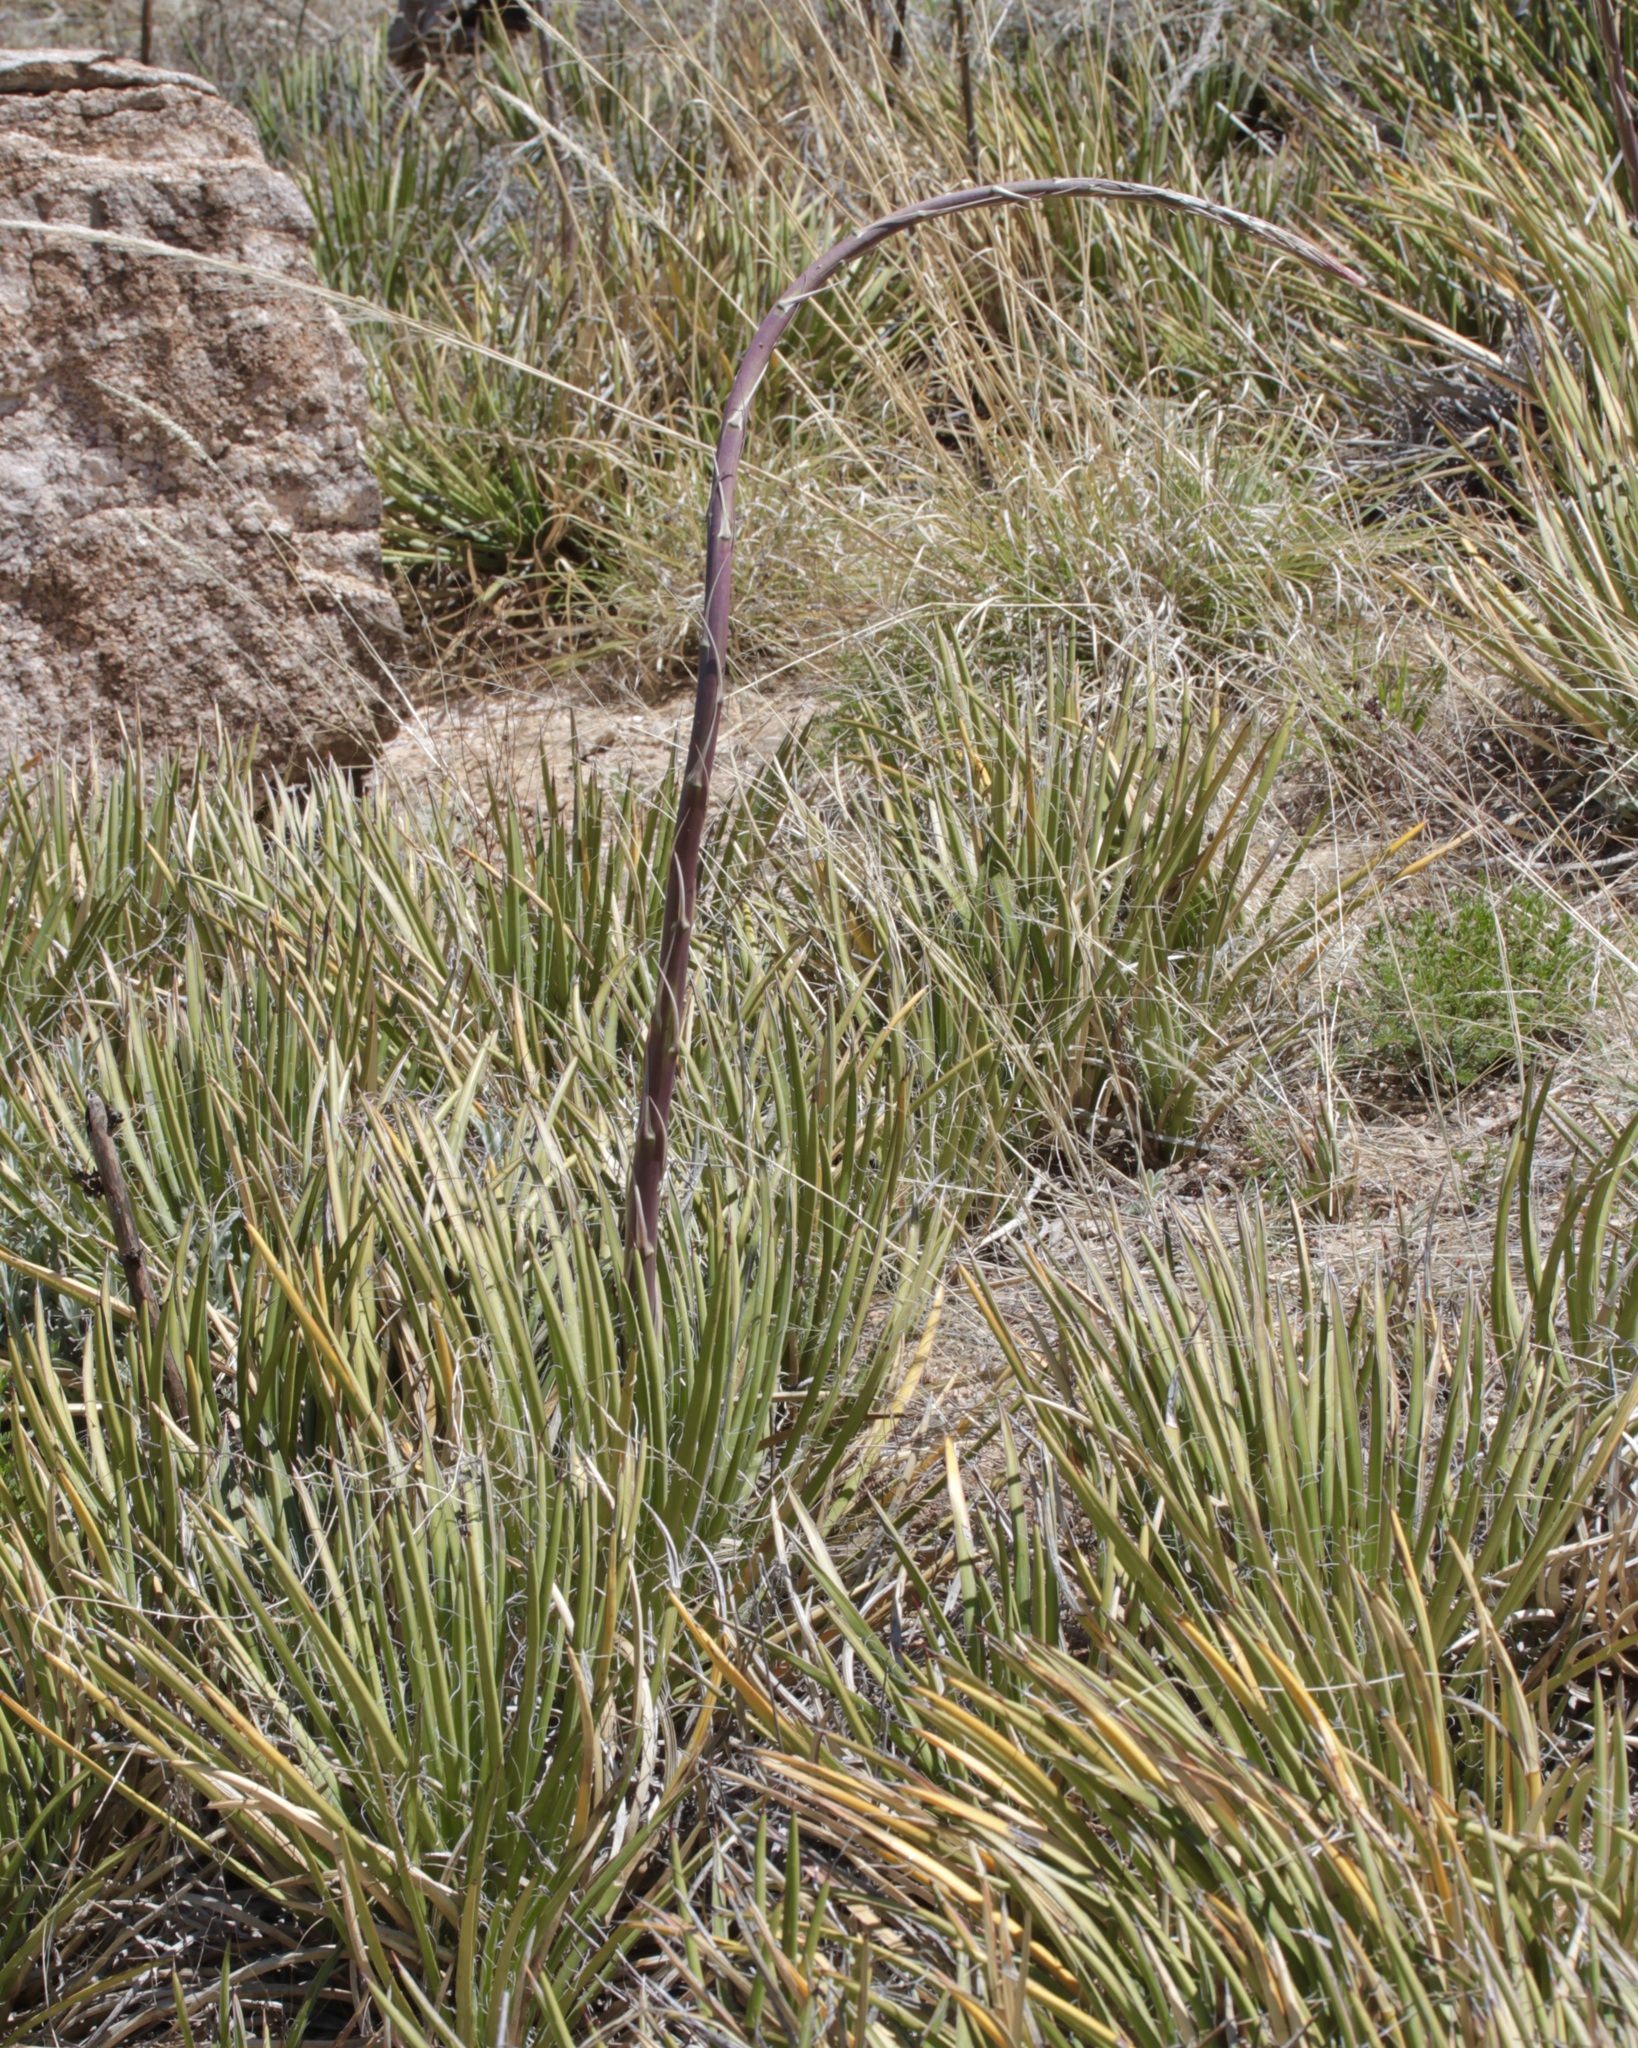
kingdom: Plantae
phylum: Tracheophyta
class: Liliopsida
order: Asparagales
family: Asparagaceae
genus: Agave
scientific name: Agave schottii
